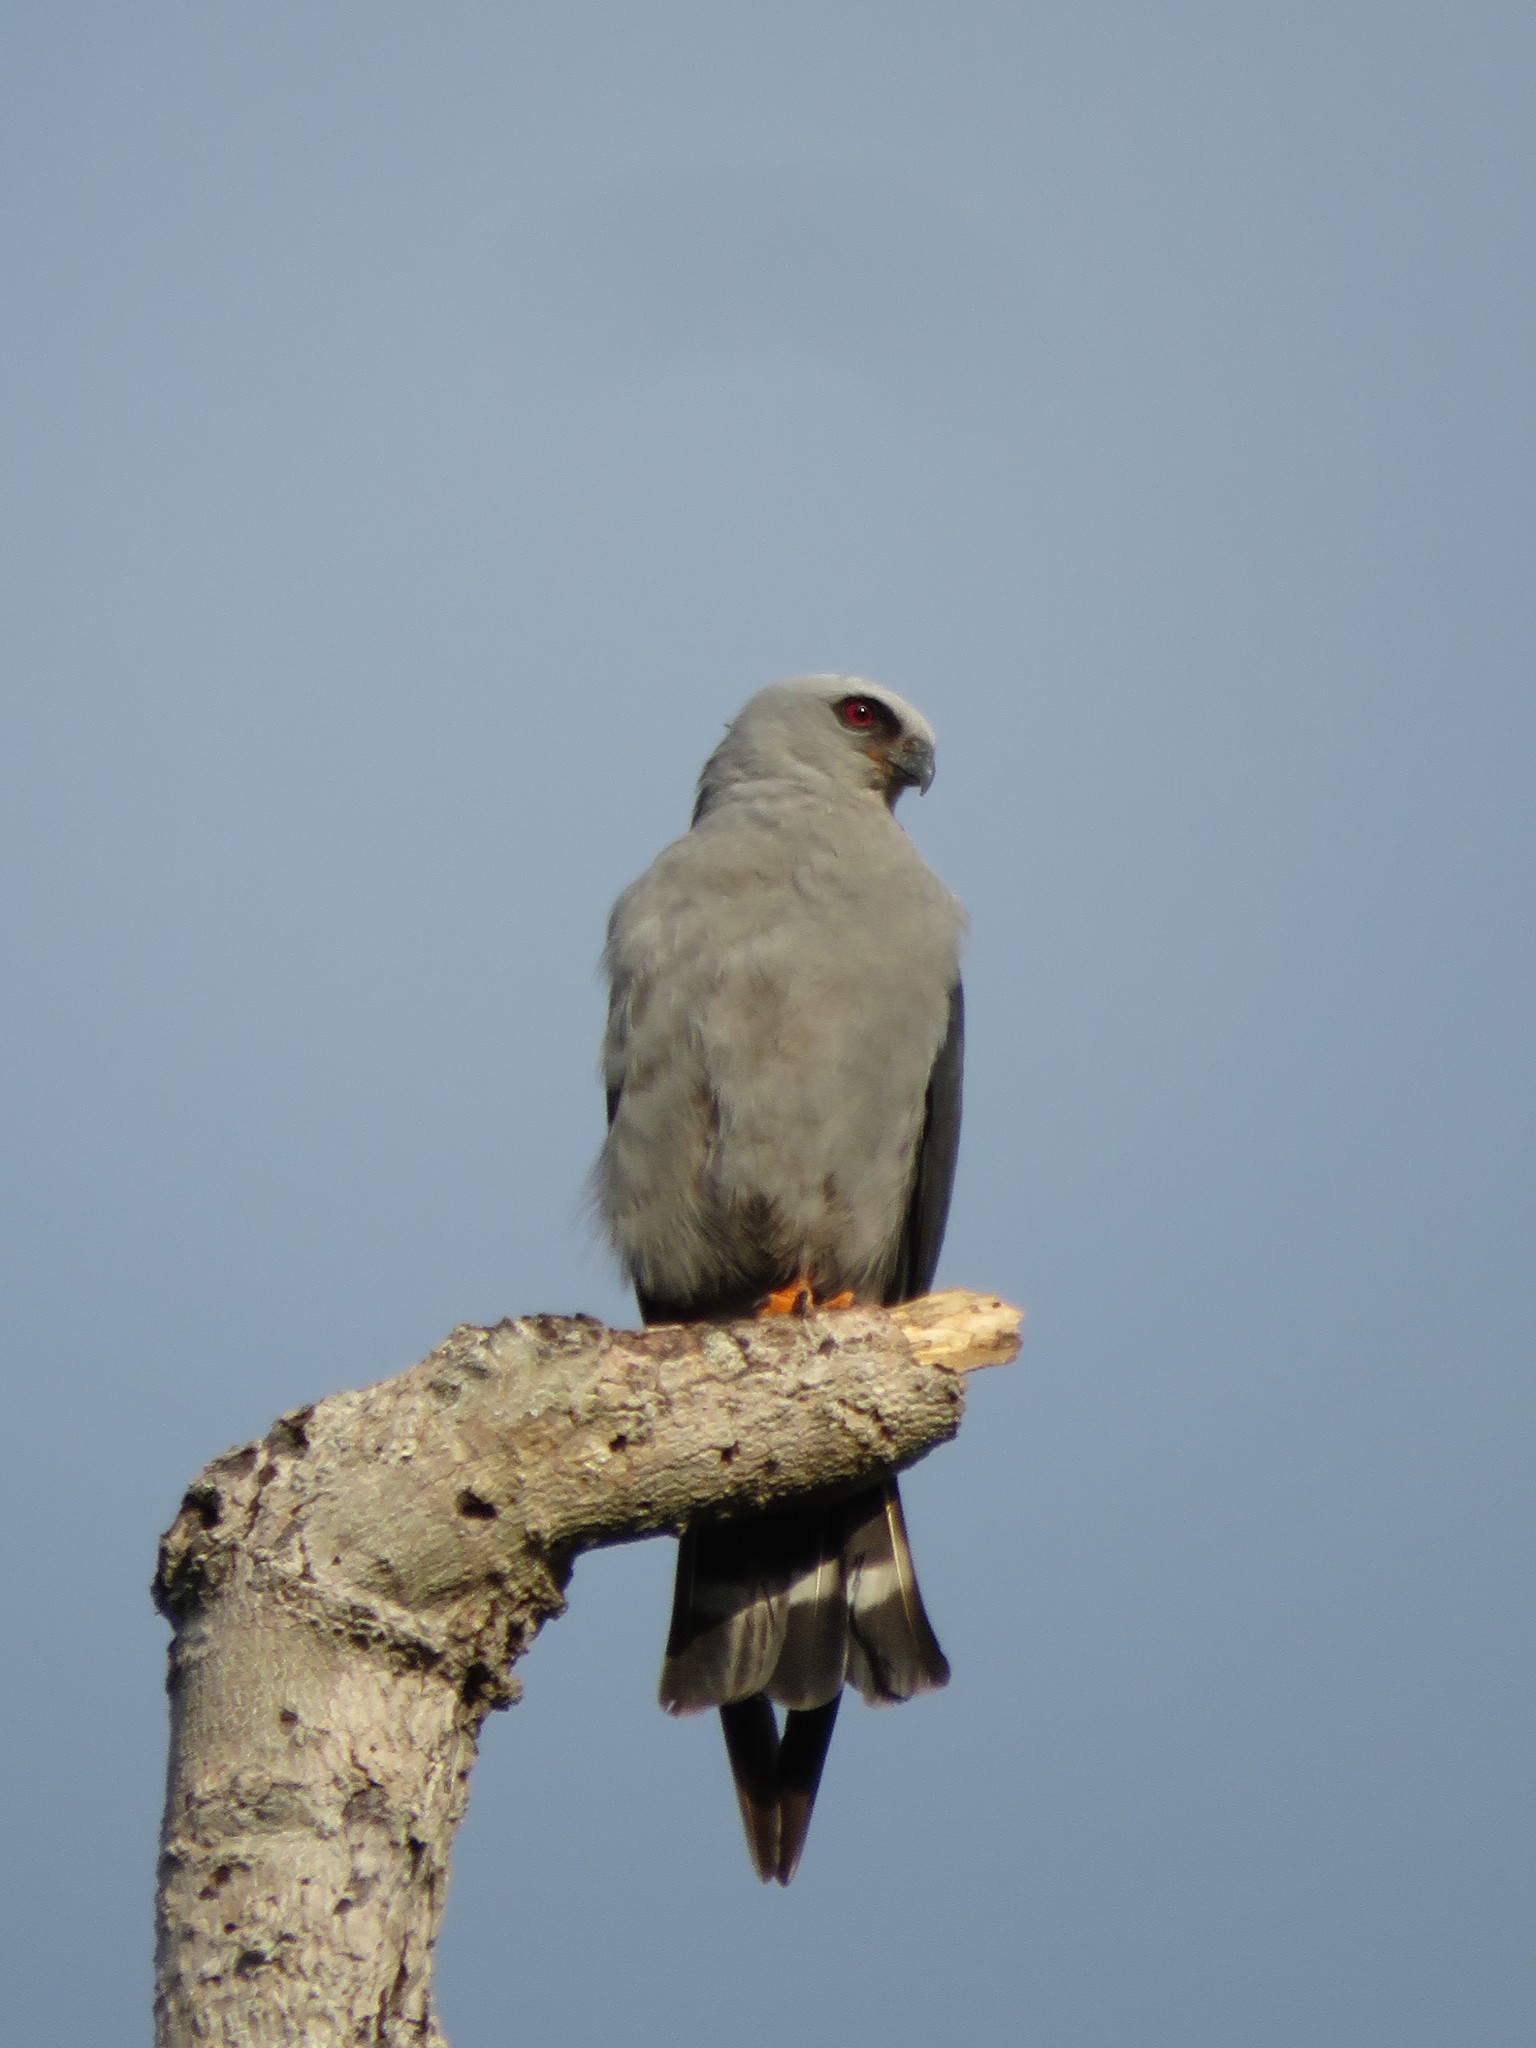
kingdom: Animalia
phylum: Chordata
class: Aves
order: Accipitriformes
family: Accipitridae
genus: Ictinia
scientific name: Ictinia plumbea
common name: Plumbeous kite
